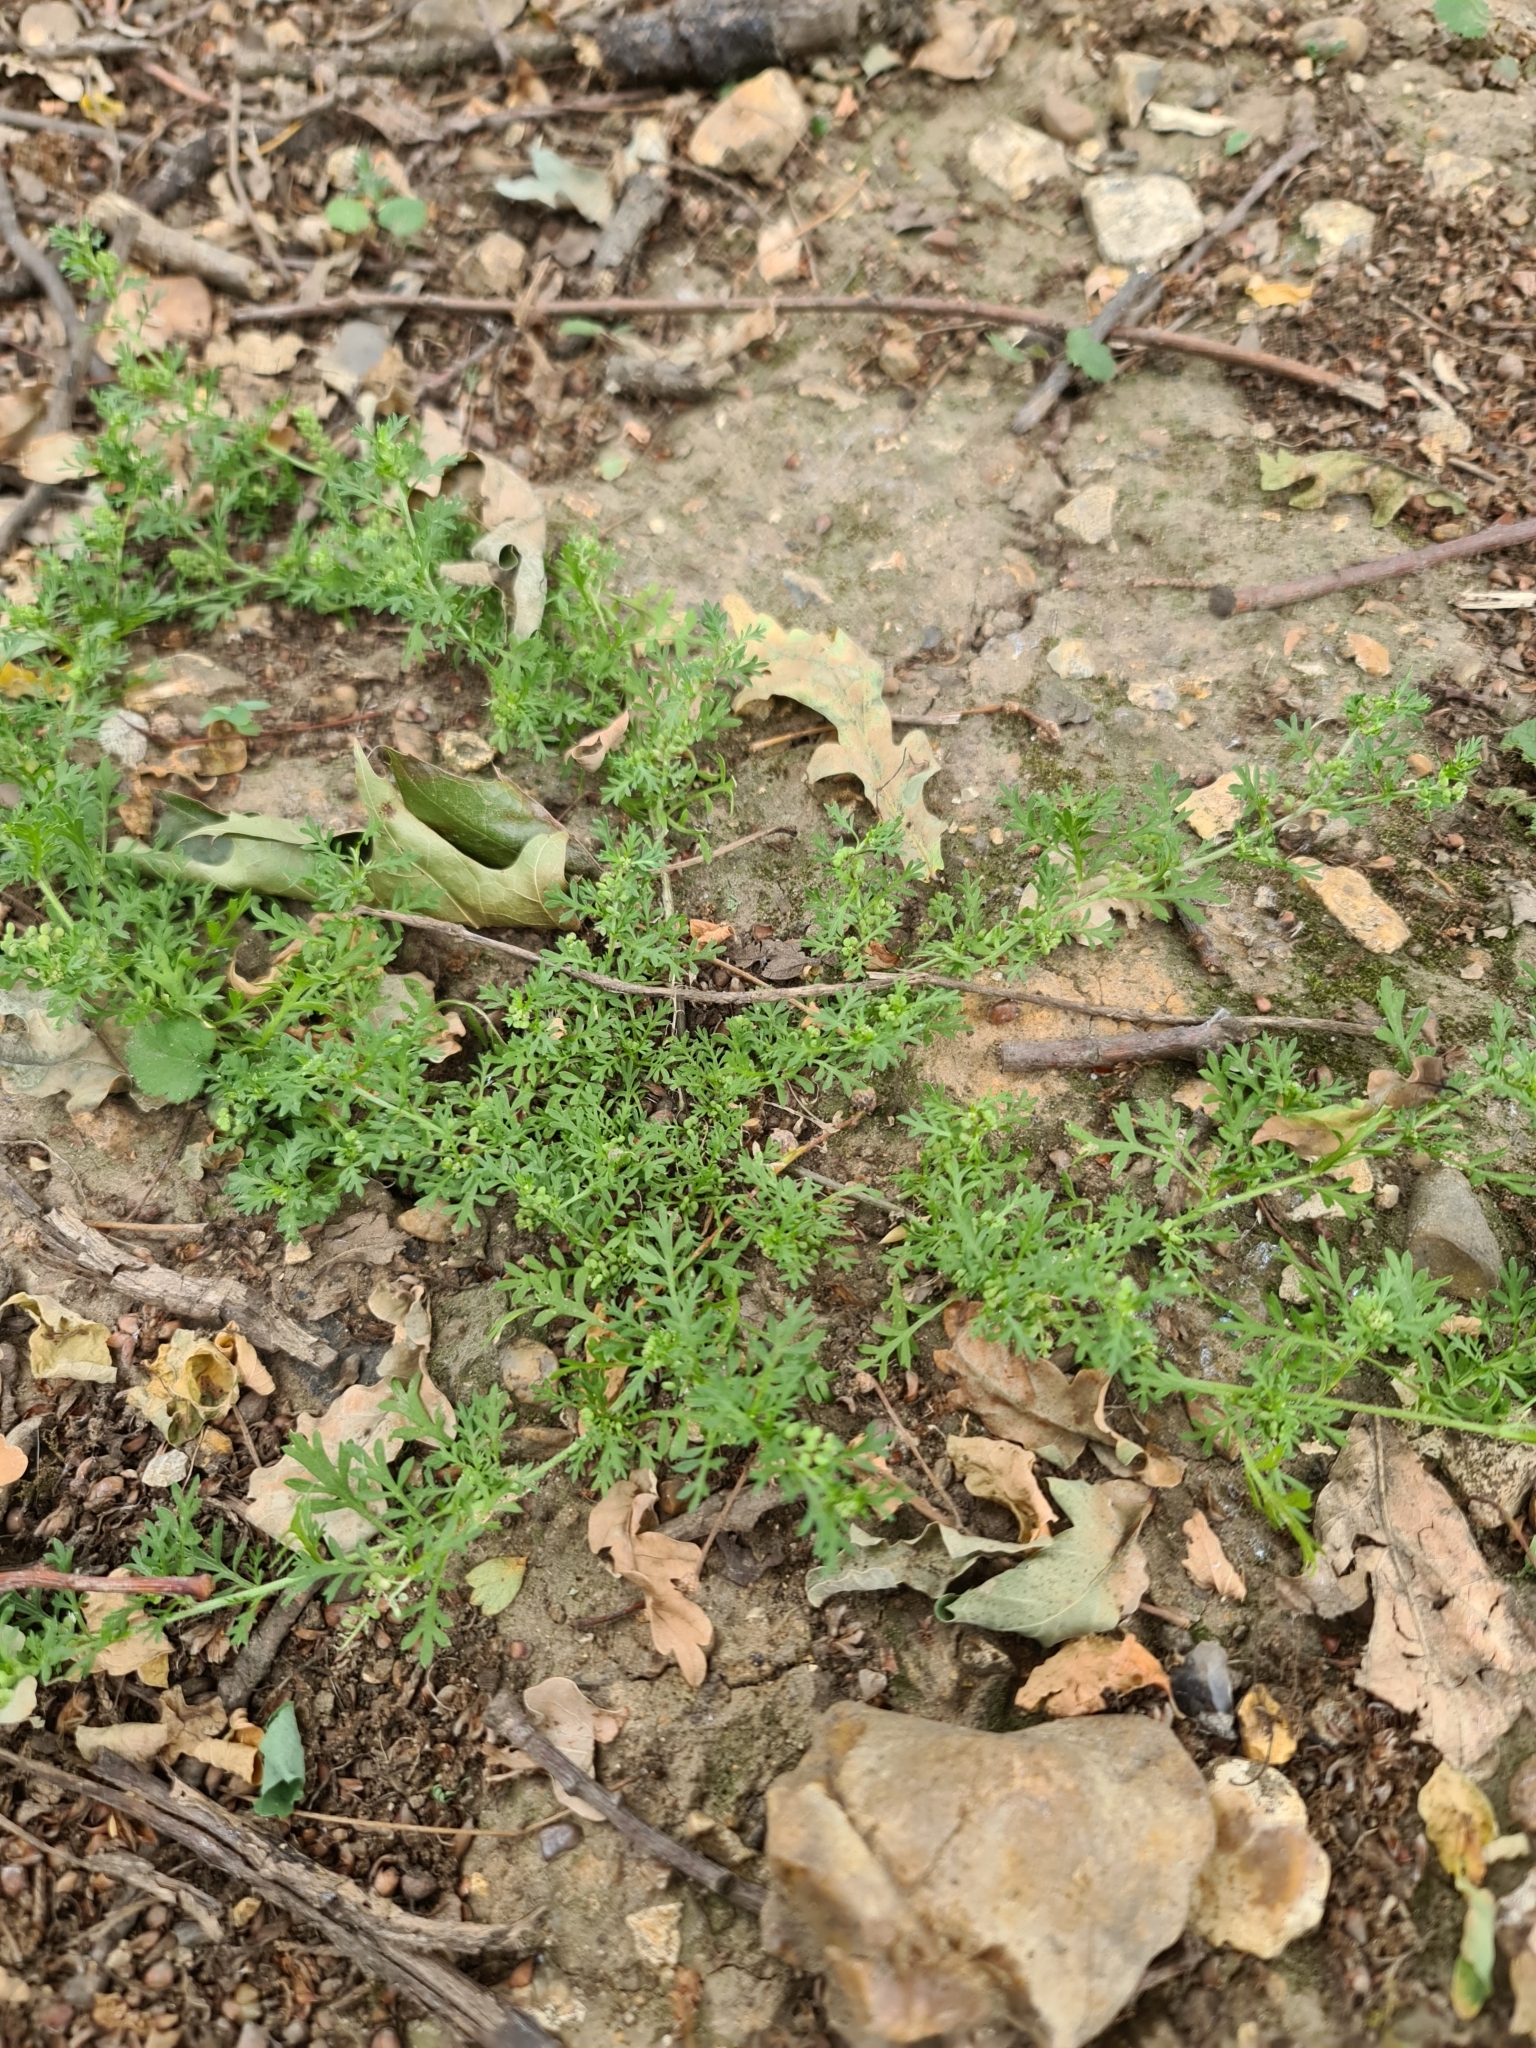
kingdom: Plantae
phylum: Tracheophyta
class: Magnoliopsida
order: Brassicales
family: Brassicaceae
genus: Lepidium
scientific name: Lepidium didymum
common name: Lesser swinecress
